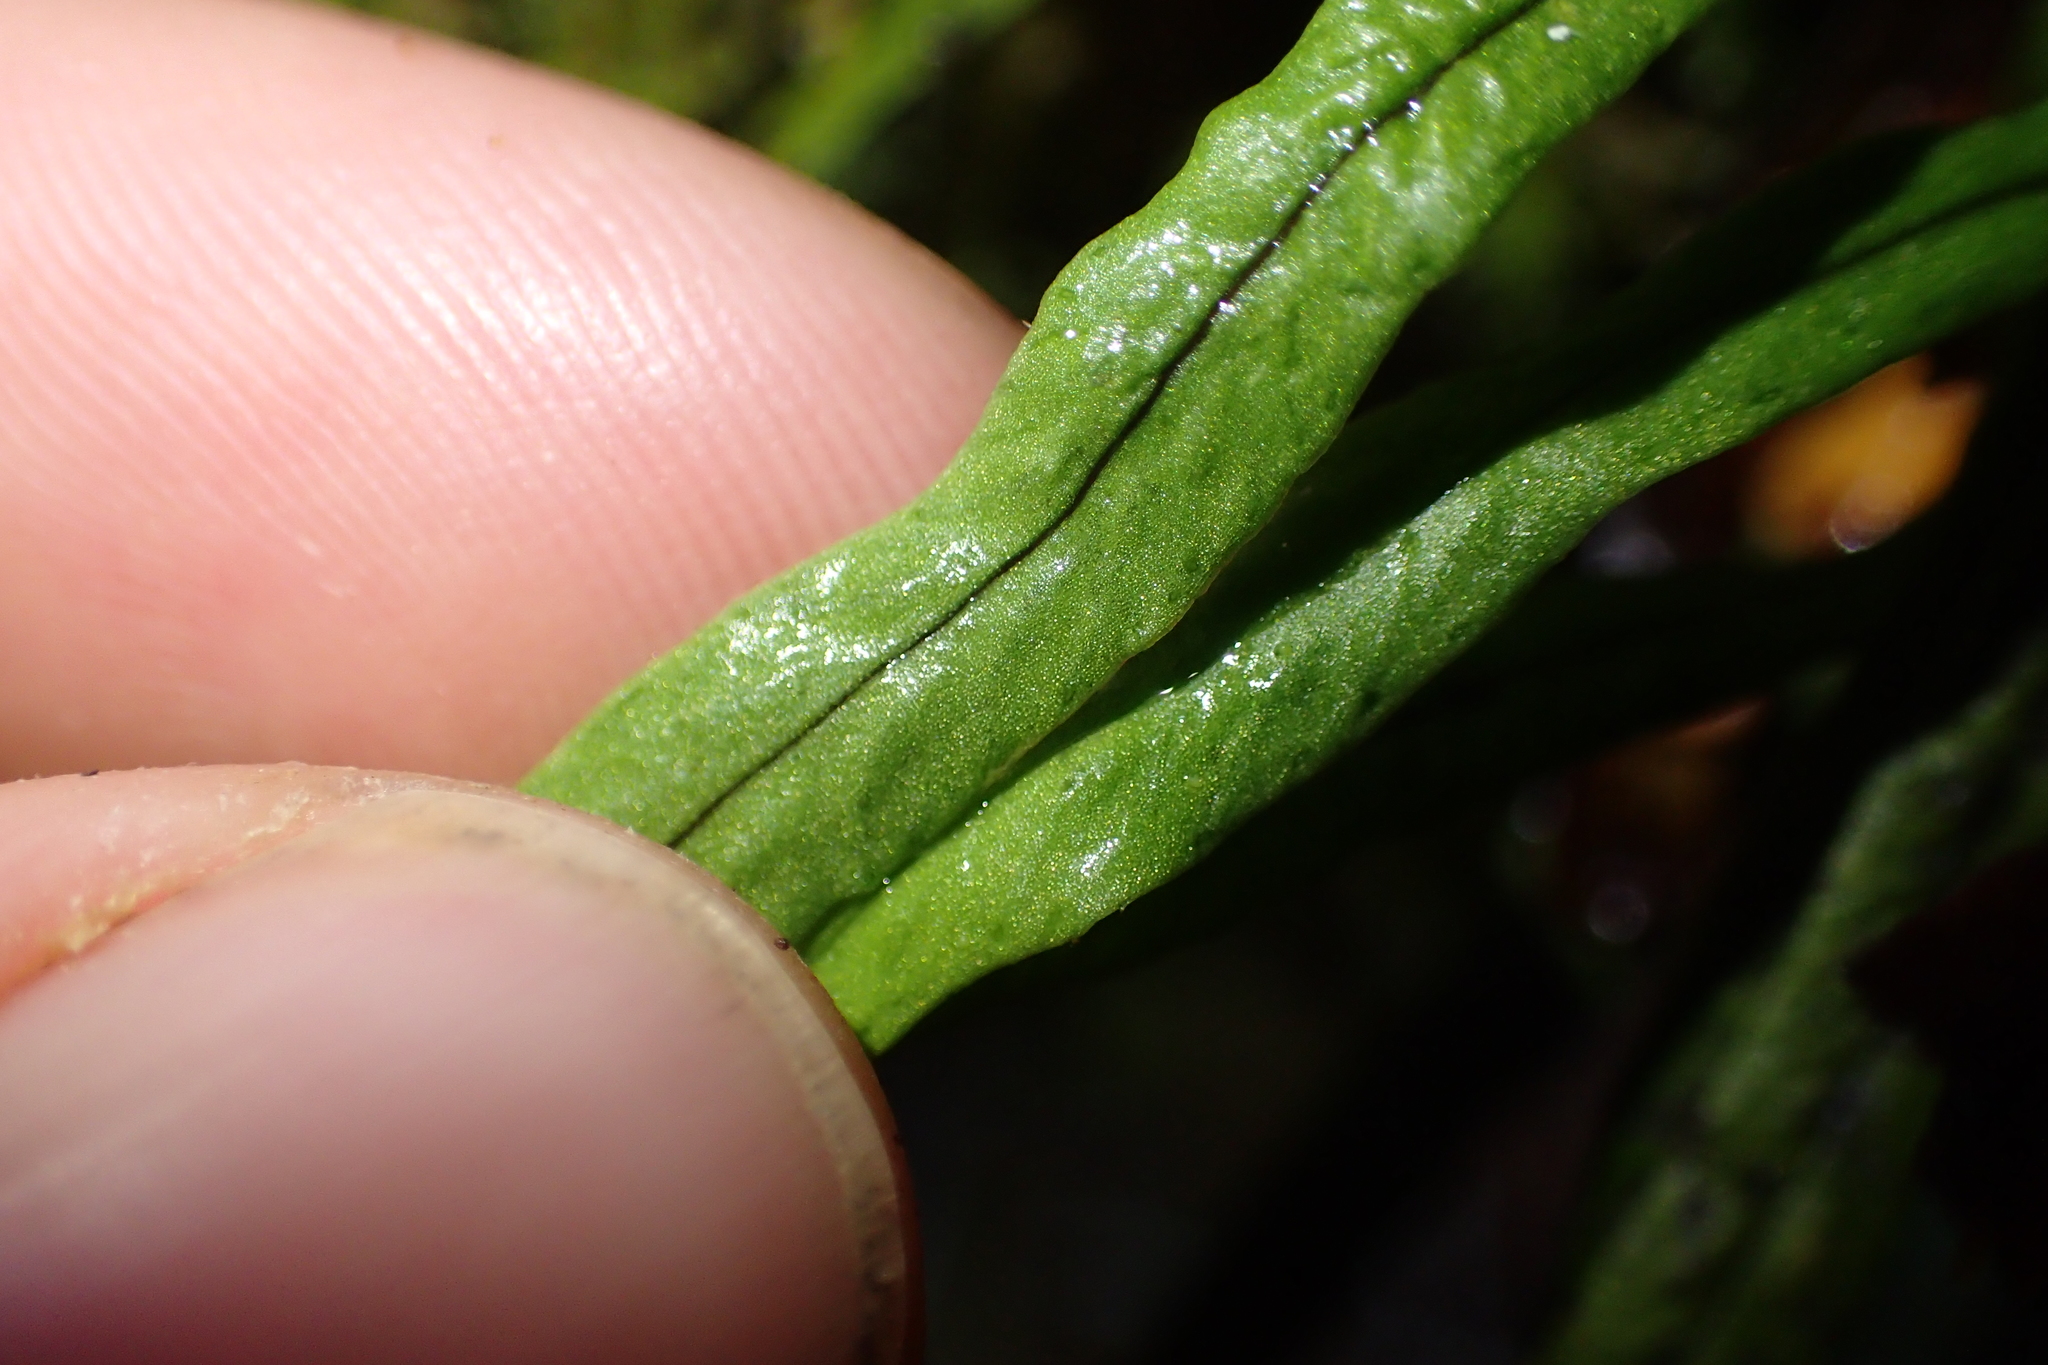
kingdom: Plantae
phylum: Tracheophyta
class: Polypodiopsida
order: Polypodiales
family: Polypodiaceae
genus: Notogrammitis
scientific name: Notogrammitis angustifolia
